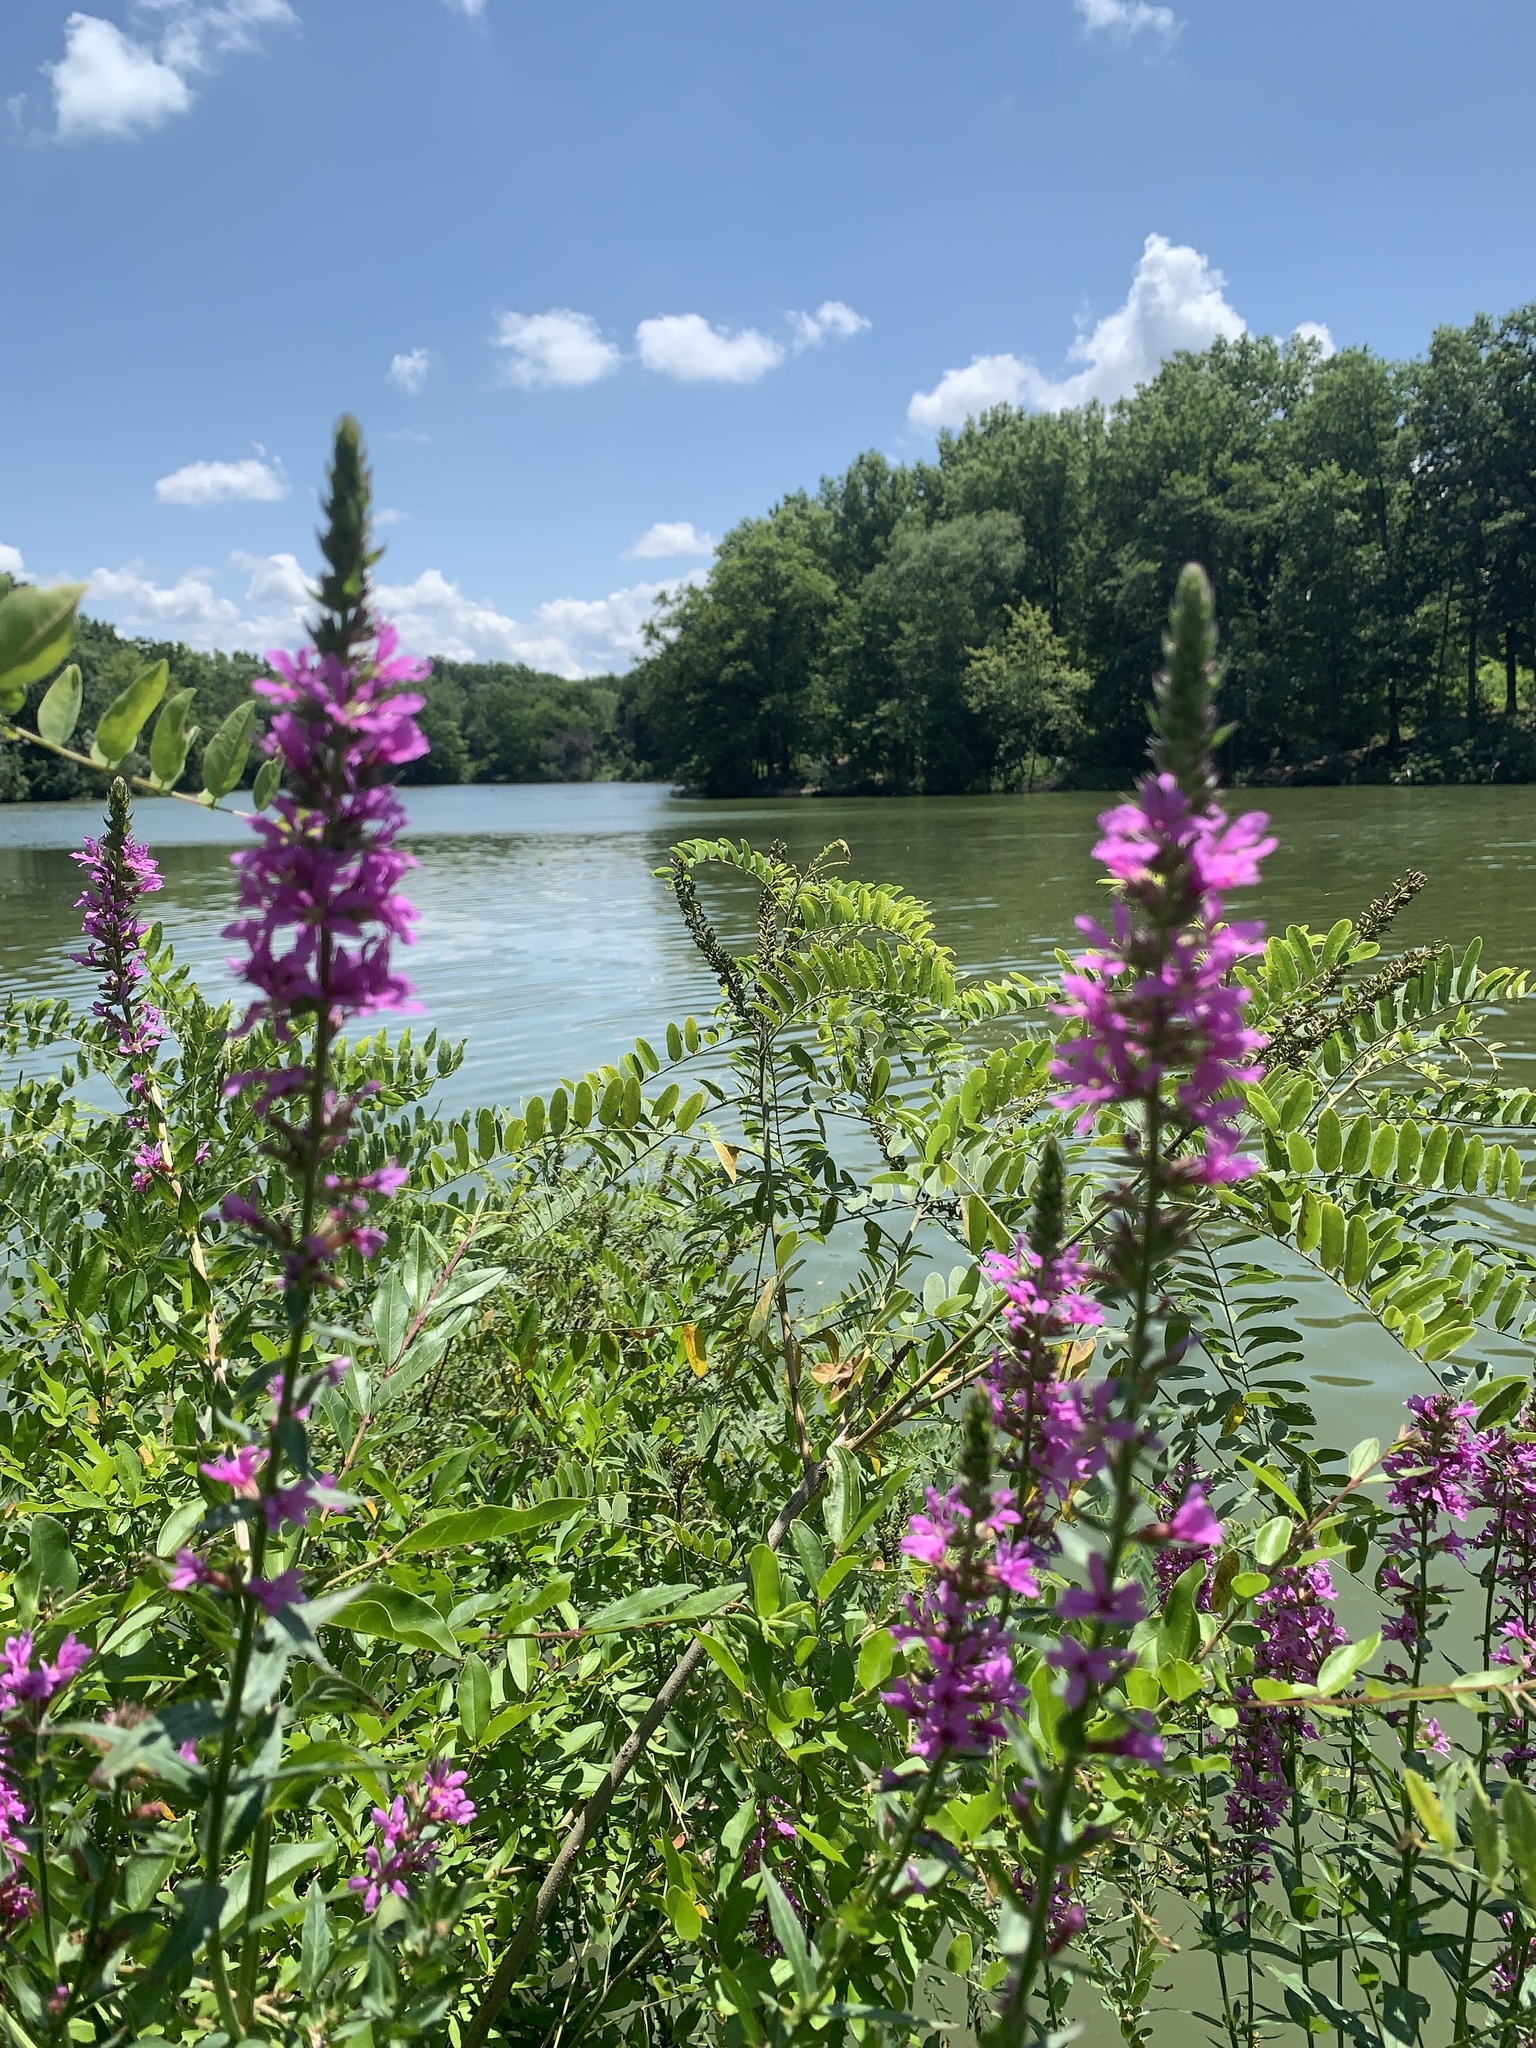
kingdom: Plantae
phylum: Tracheophyta
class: Magnoliopsida
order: Myrtales
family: Lythraceae
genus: Lythrum
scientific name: Lythrum salicaria
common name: Purple loosestrife
